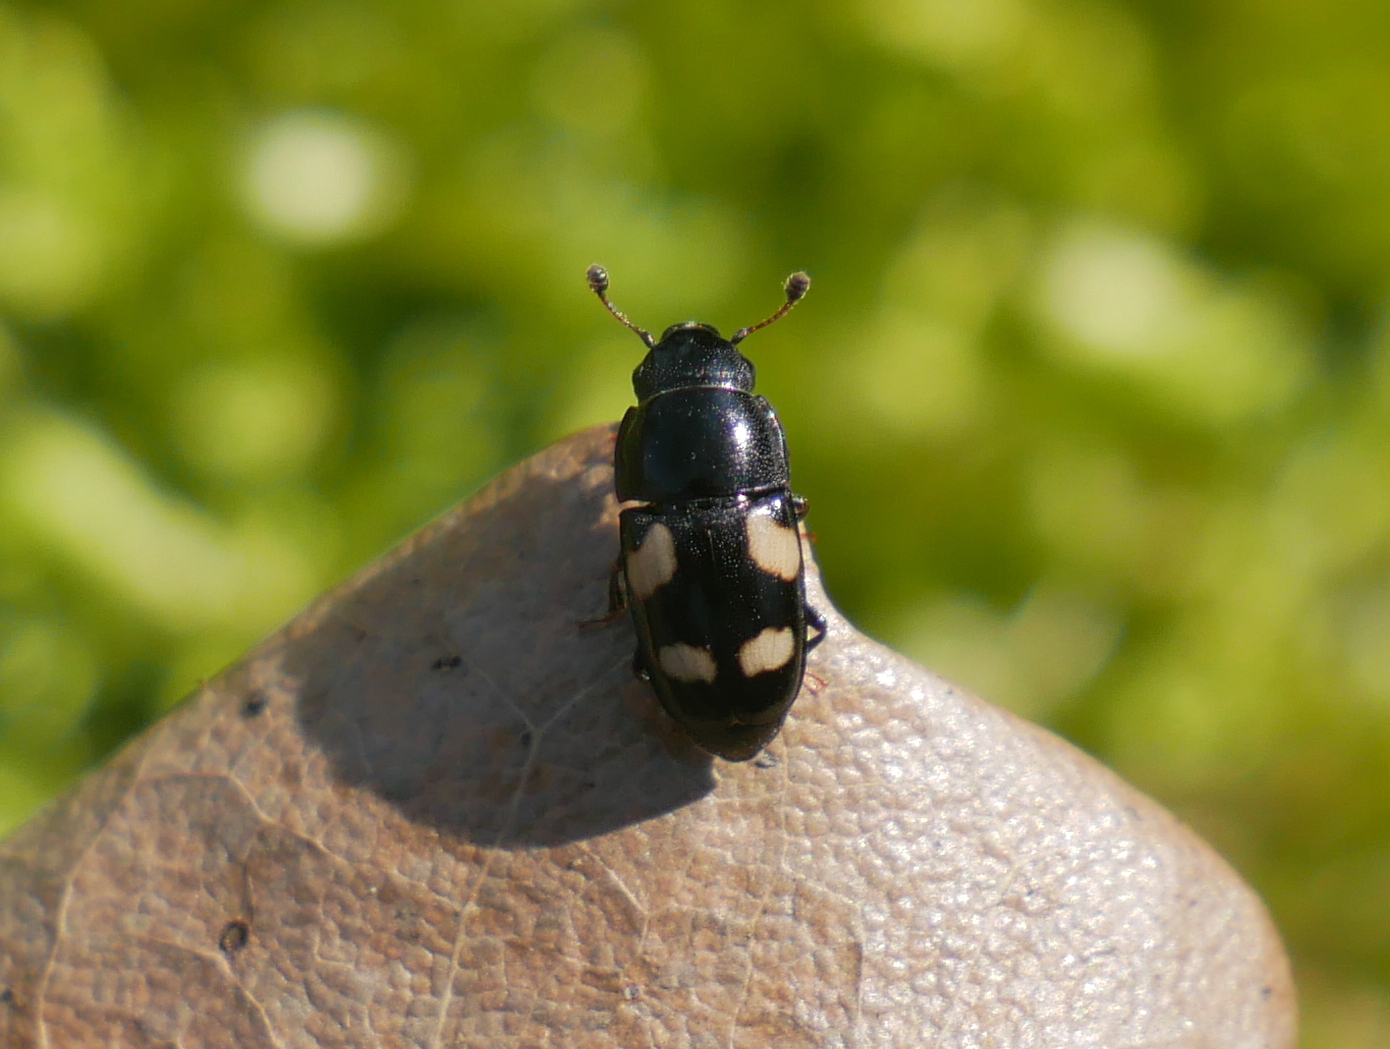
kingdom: Animalia
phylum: Arthropoda
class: Insecta
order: Coleoptera
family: Nitidulidae
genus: Glischrochilus
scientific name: Glischrochilus quadrisignatus
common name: Picnic beetle
